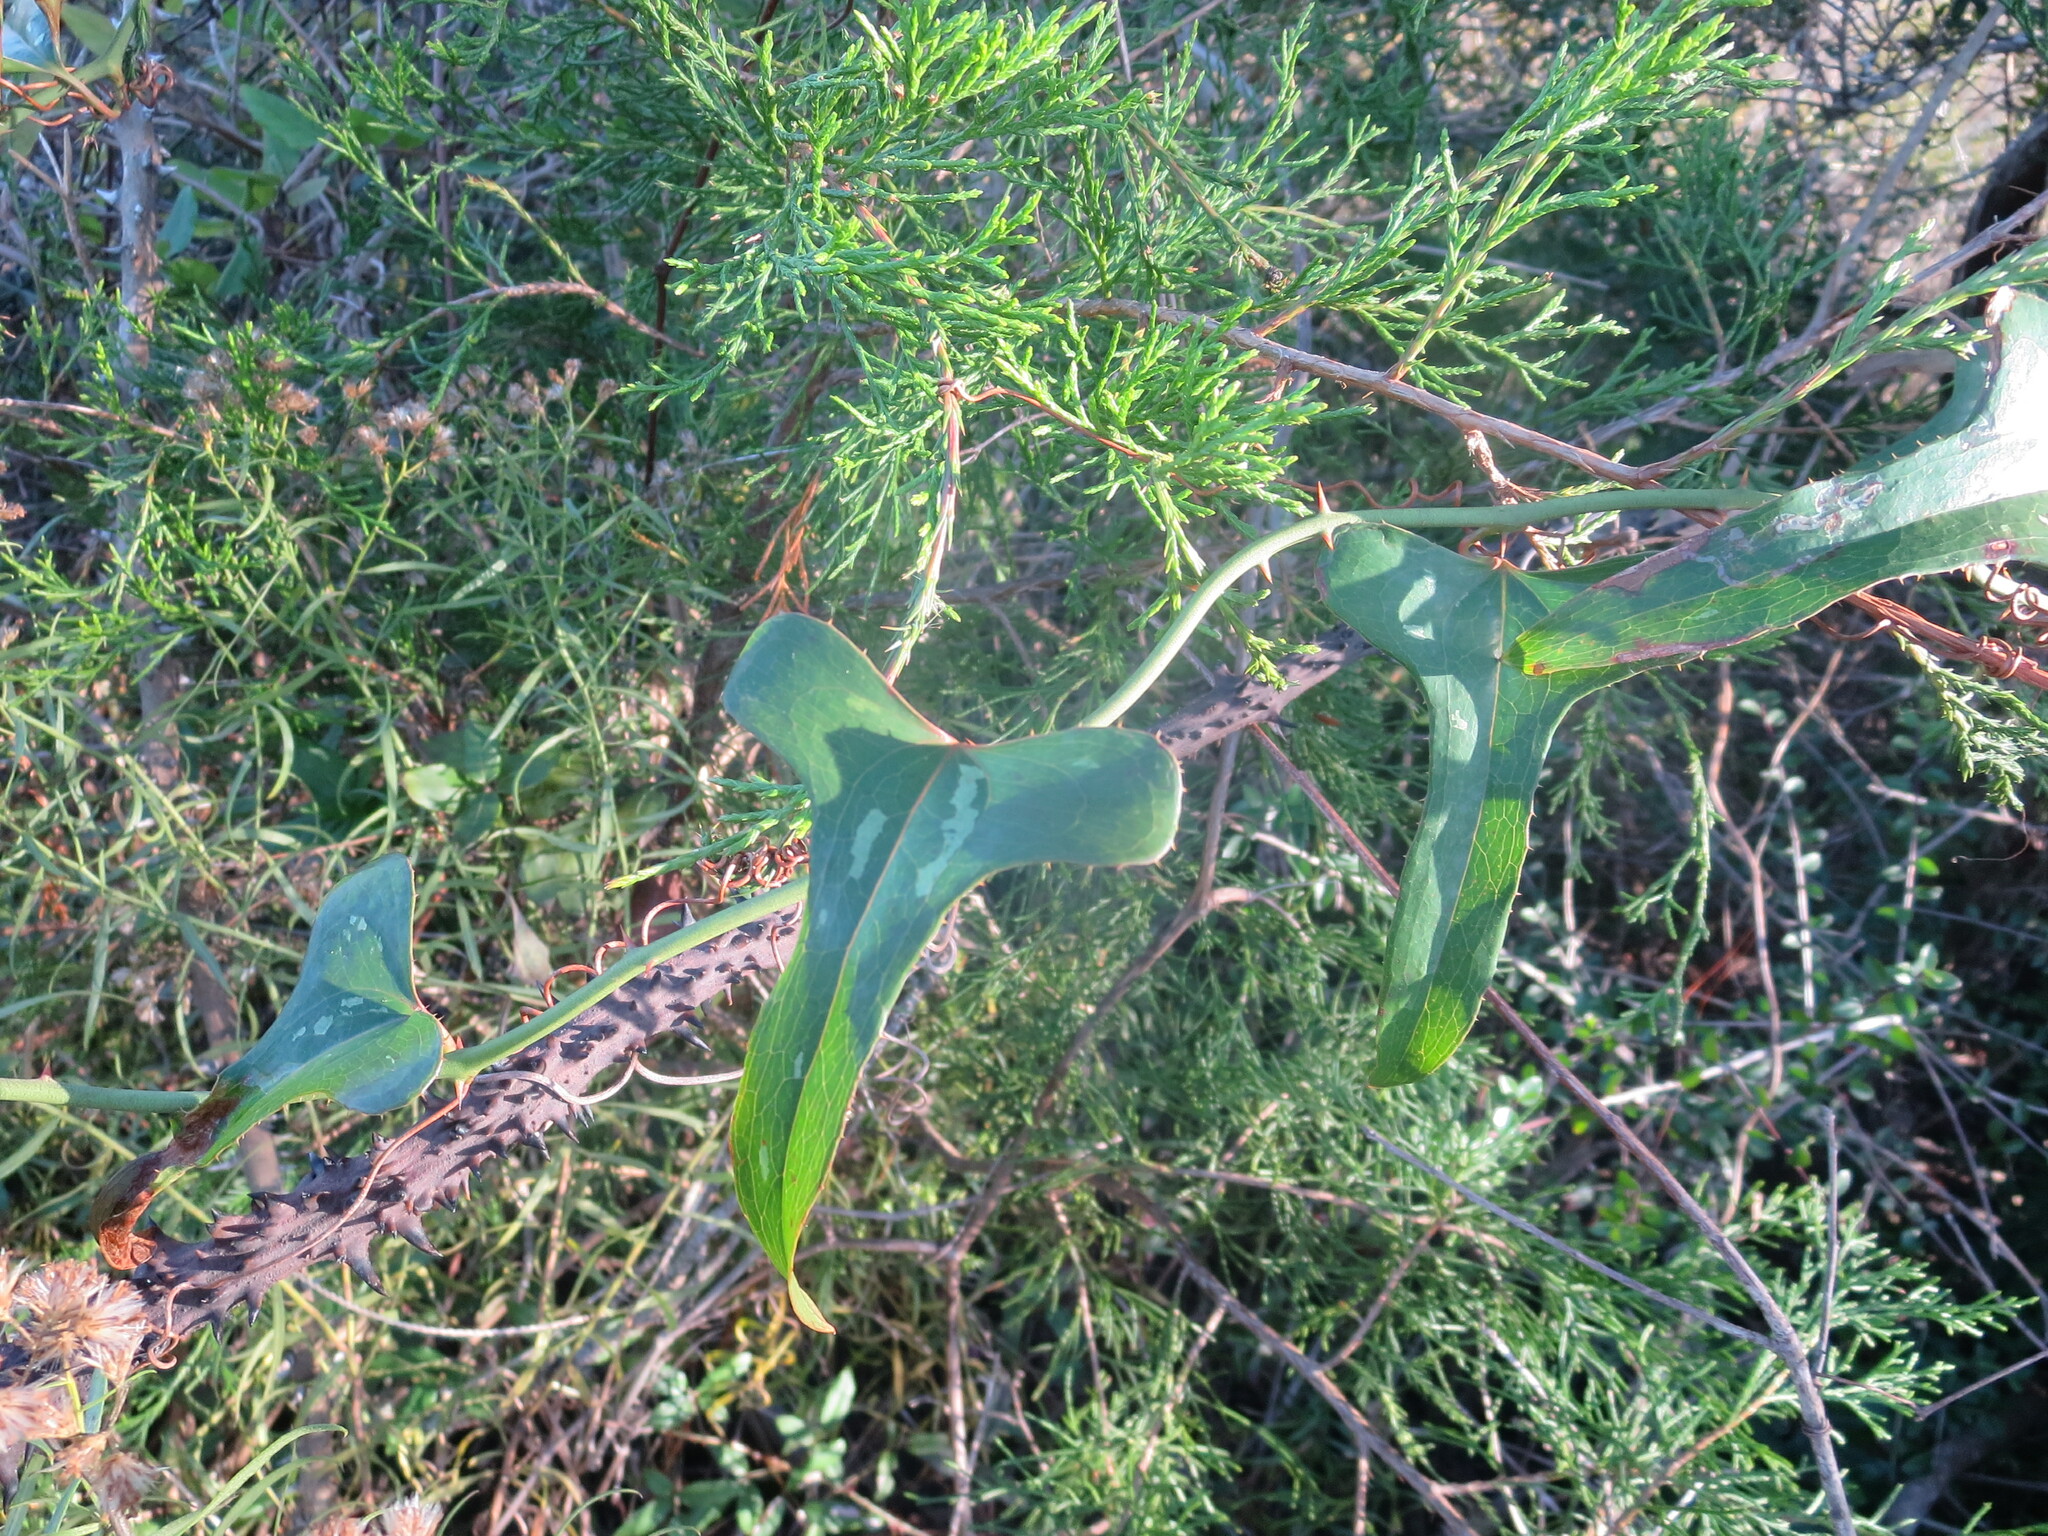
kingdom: Plantae
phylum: Tracheophyta
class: Liliopsida
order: Liliales
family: Smilacaceae
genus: Smilax
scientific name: Smilax bona-nox
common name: Catbrier
